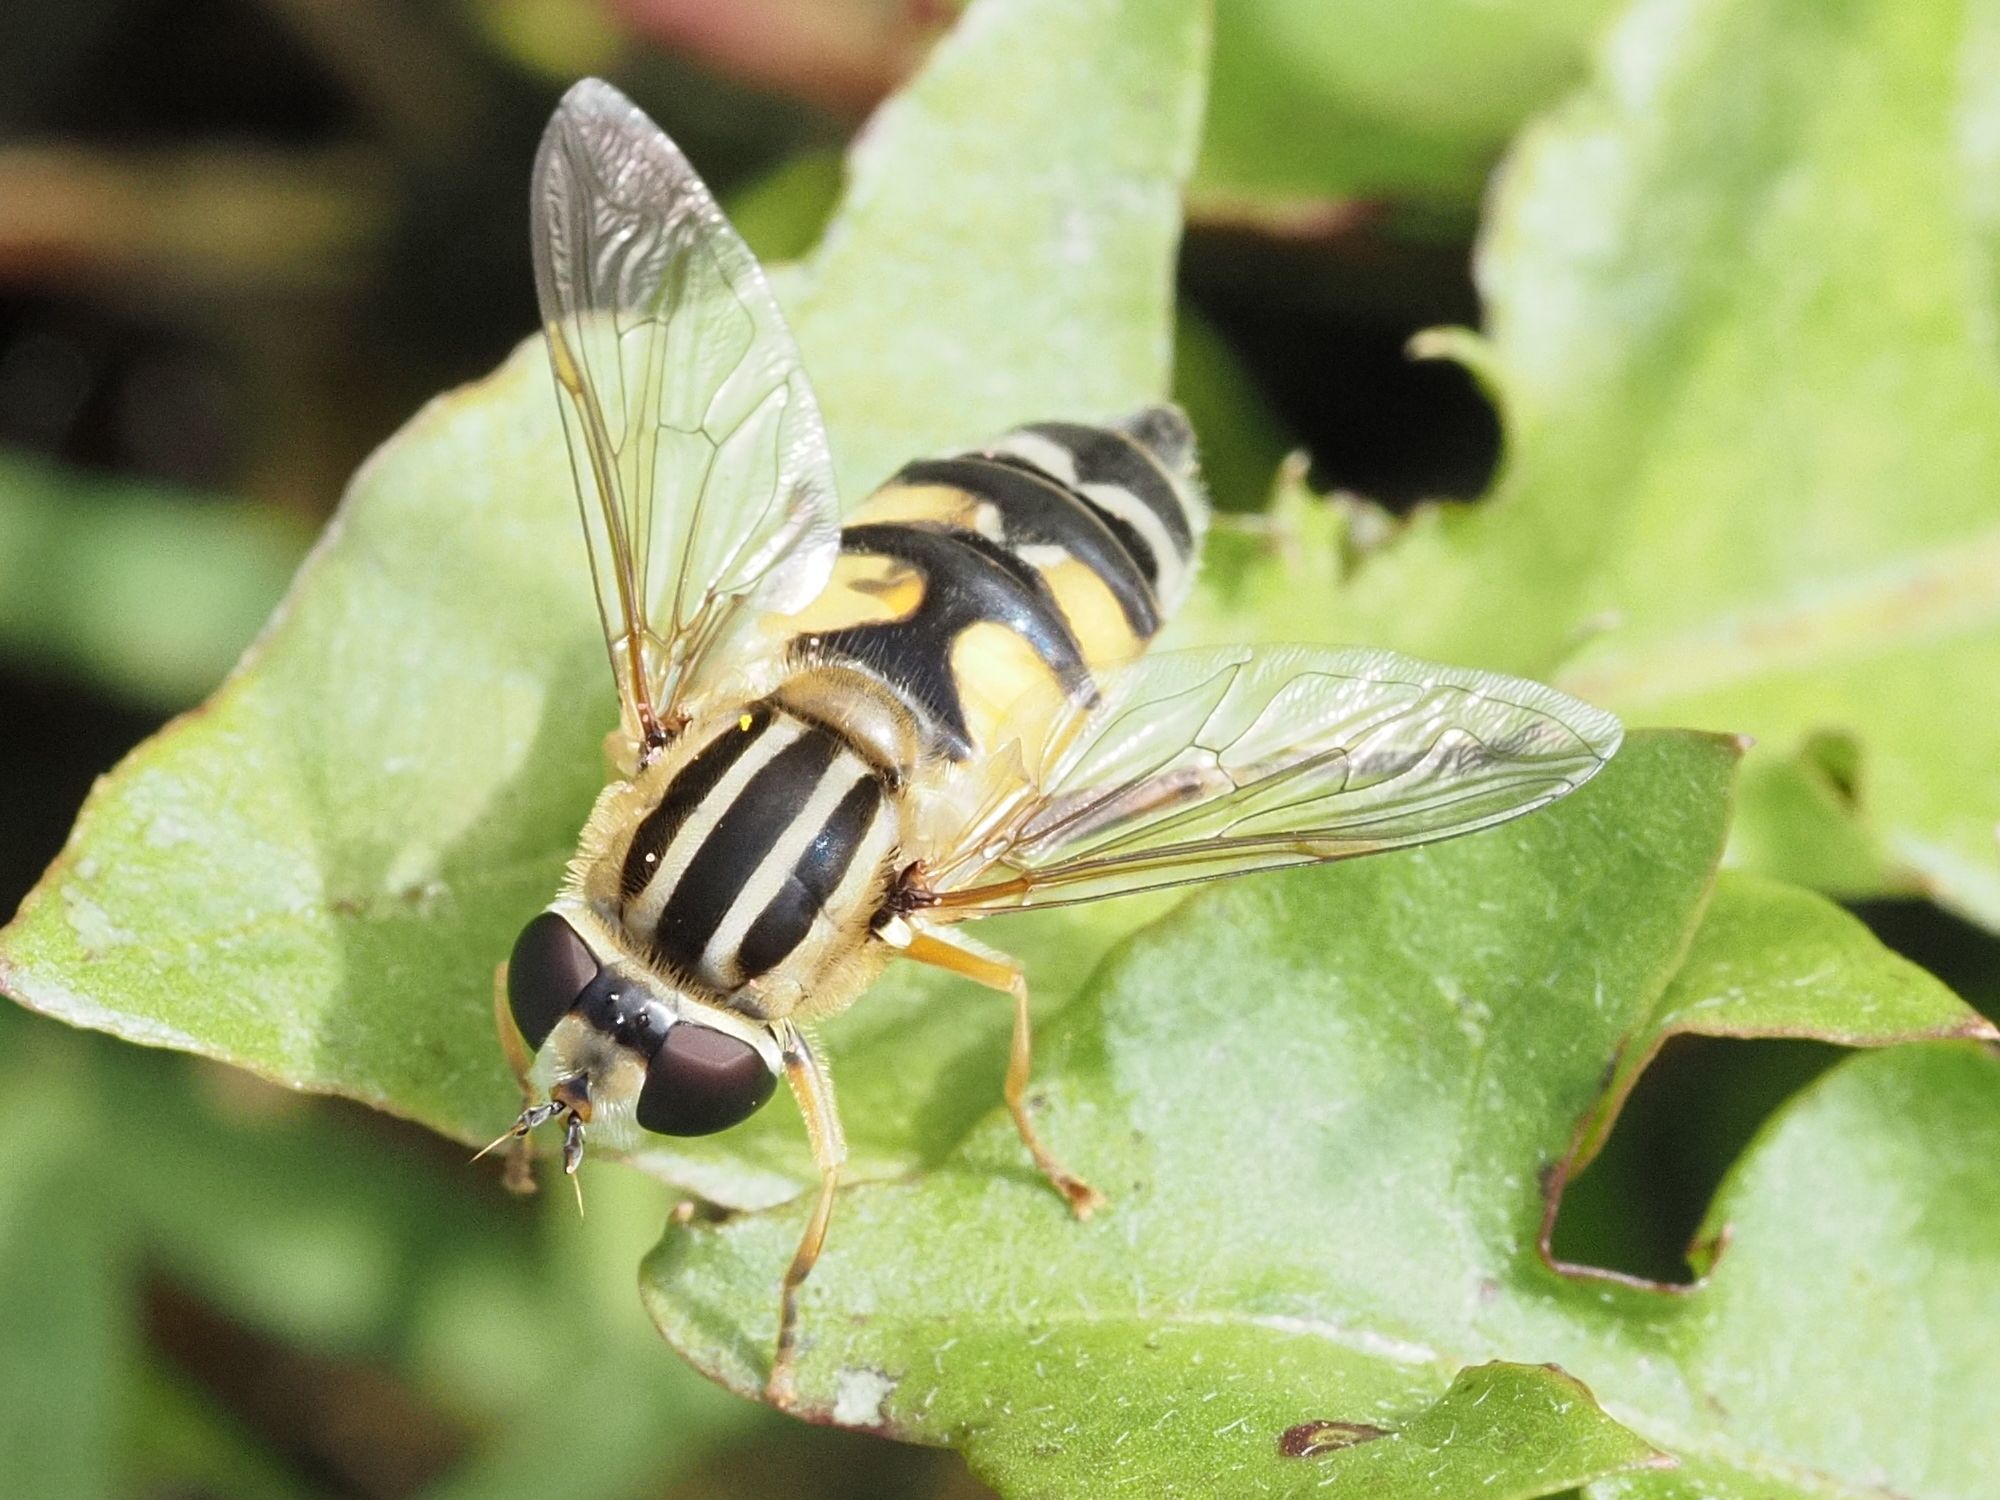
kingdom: Animalia
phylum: Arthropoda
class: Insecta
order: Diptera
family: Syrphidae
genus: Helophilus
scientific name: Helophilus trivittatus
